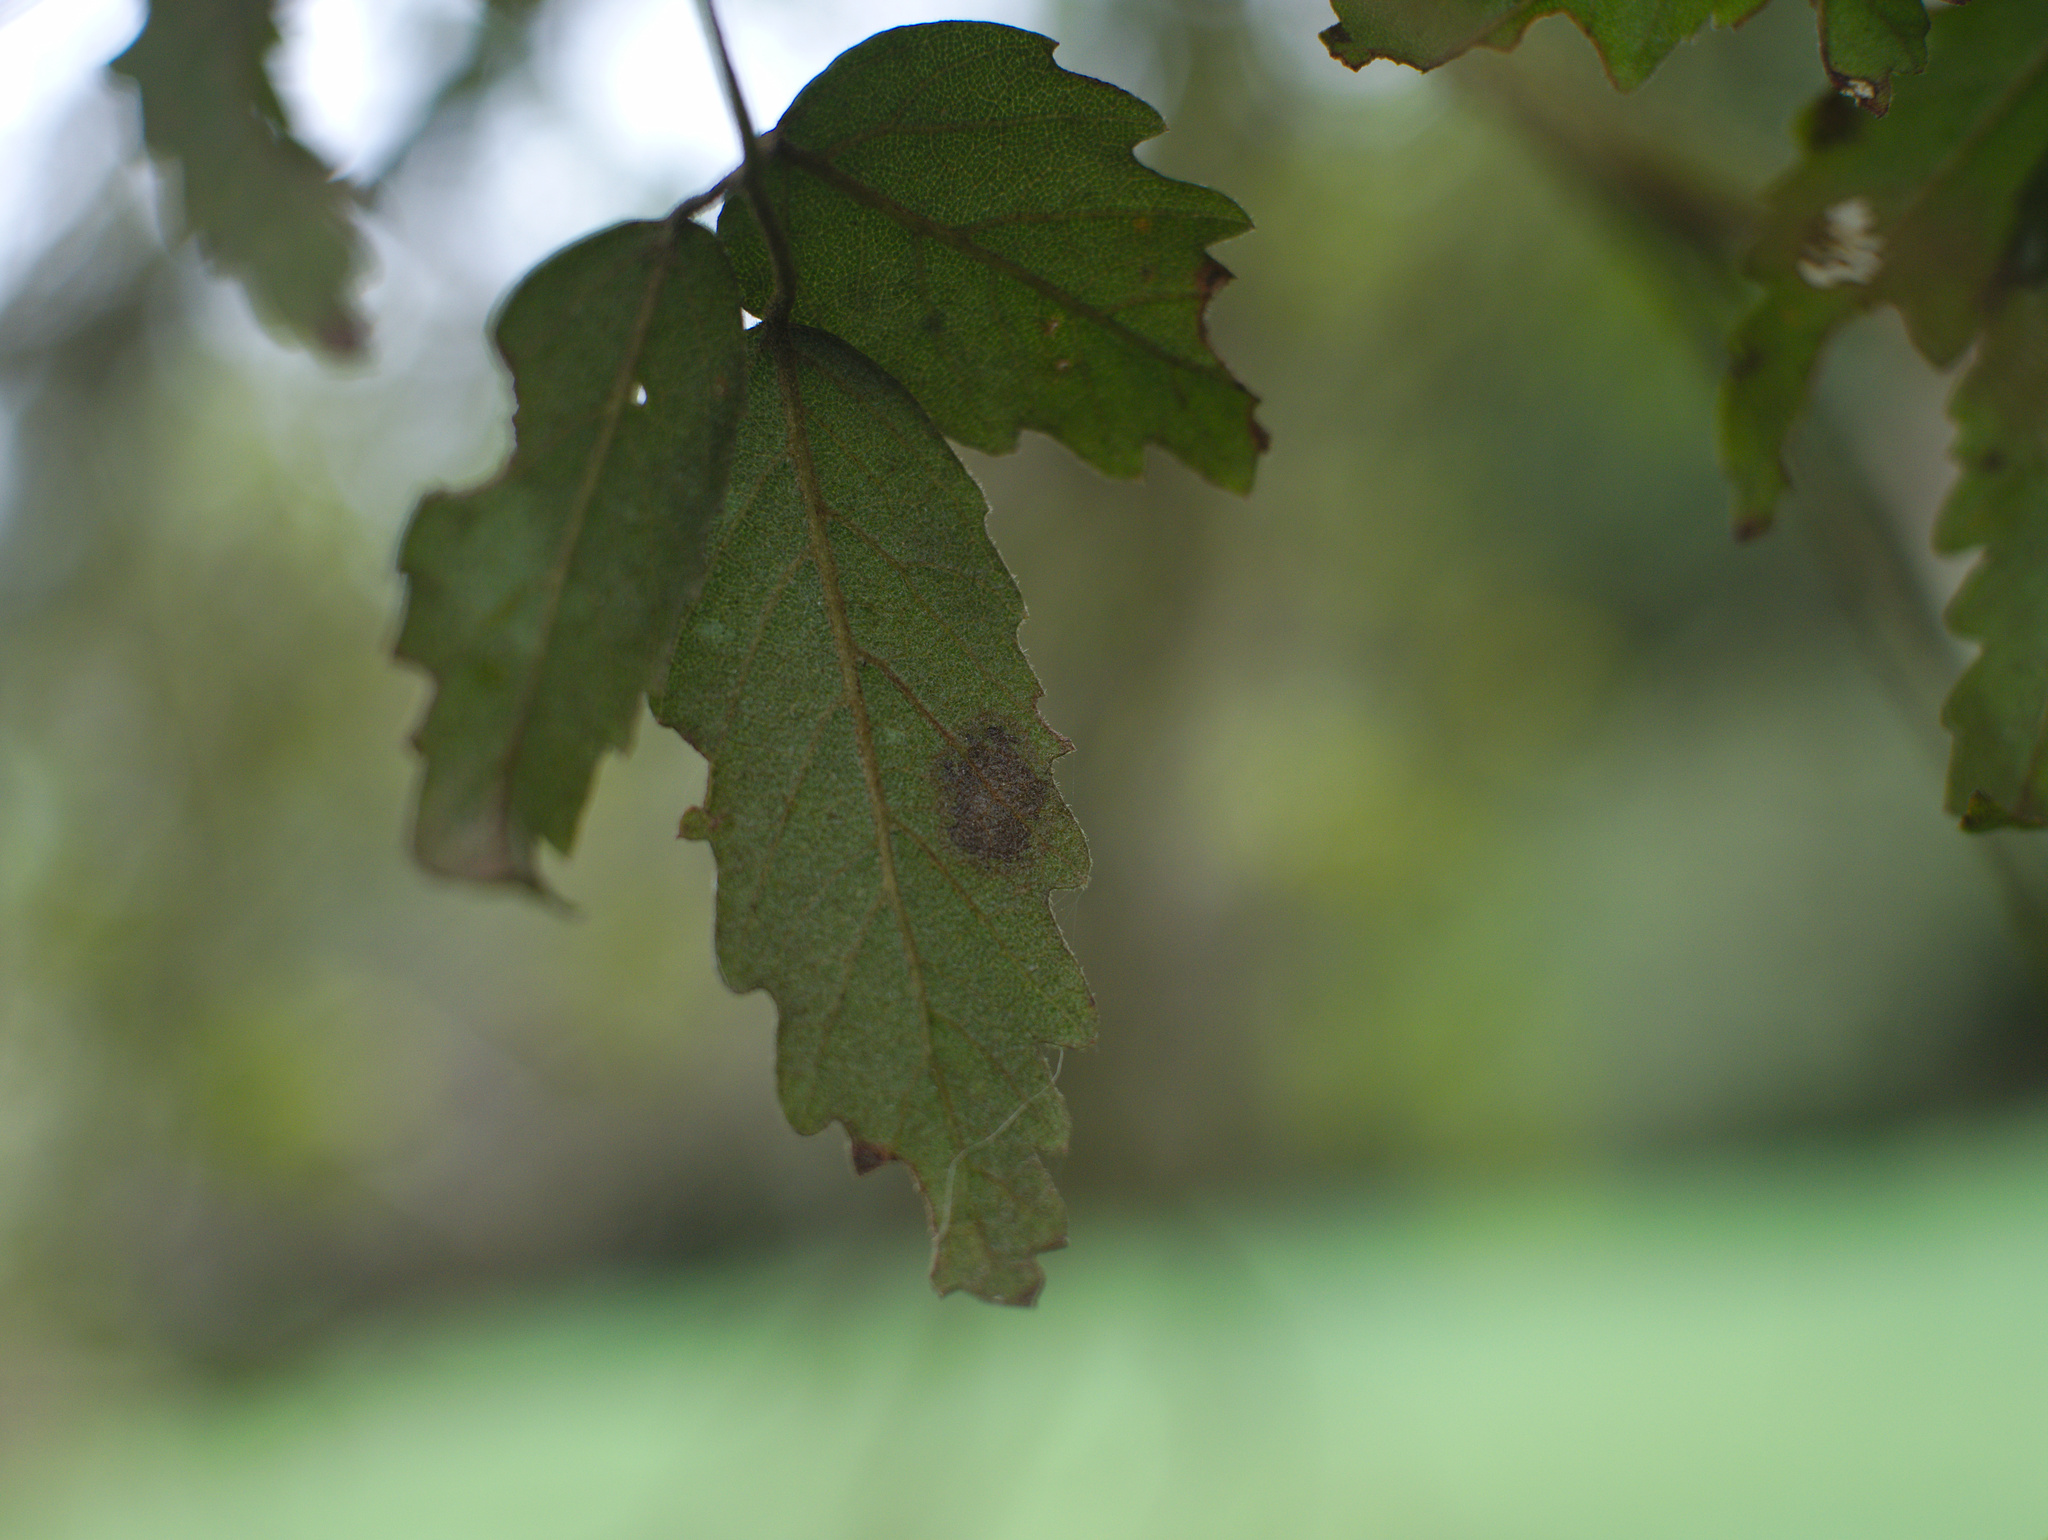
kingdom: Plantae
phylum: Tracheophyta
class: Magnoliopsida
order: Rosales
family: Rosaceae
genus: Rubus
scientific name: Rubus schmidelioides
